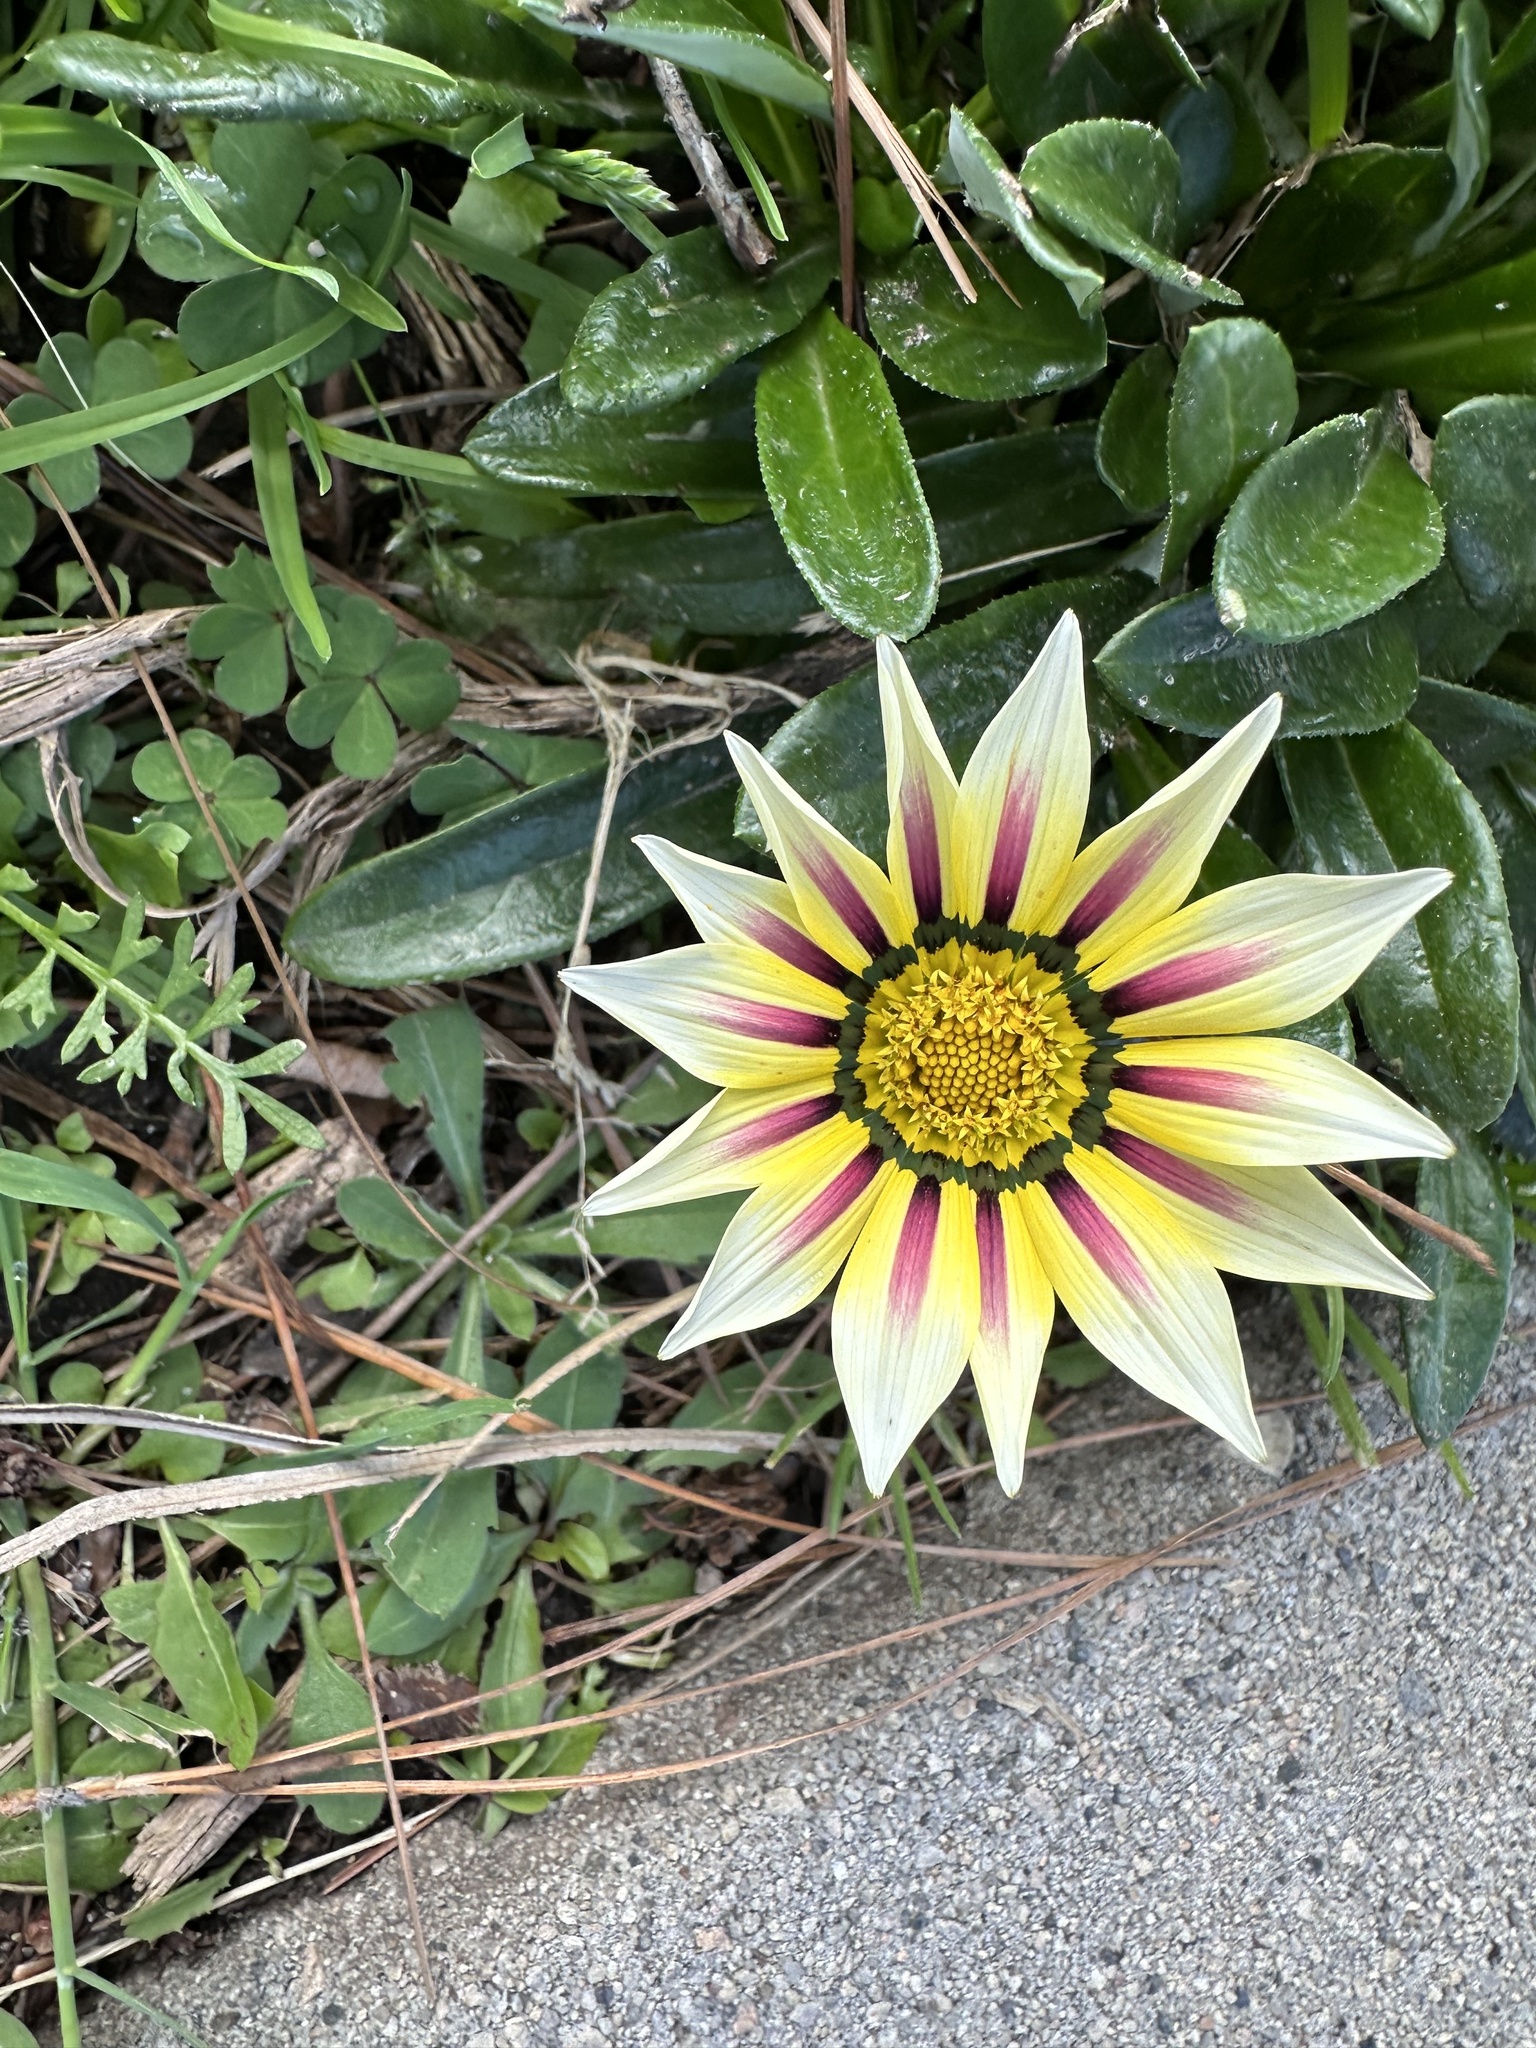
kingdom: Plantae
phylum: Tracheophyta
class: Magnoliopsida
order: Asterales
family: Asteraceae
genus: Gazania
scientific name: Gazania linearis
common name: Treasureflower
